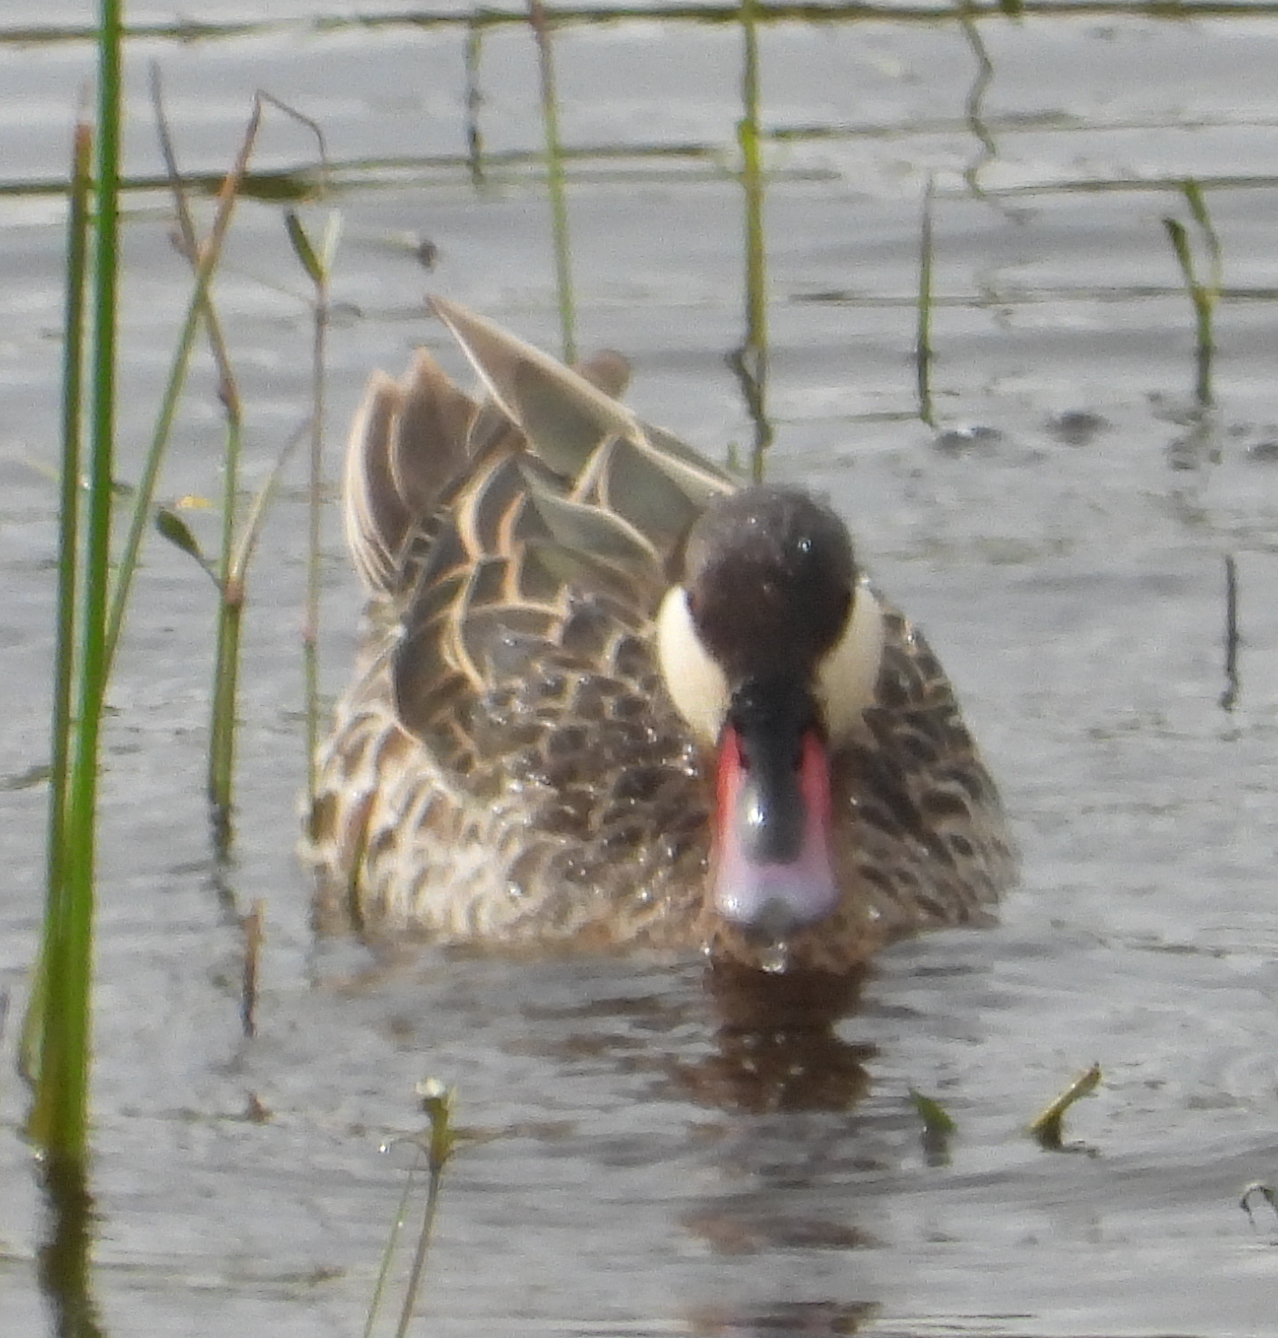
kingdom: Animalia
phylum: Chordata
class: Aves
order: Anseriformes
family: Anatidae
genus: Anas
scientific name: Anas erythrorhyncha
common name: Red-billed teal
